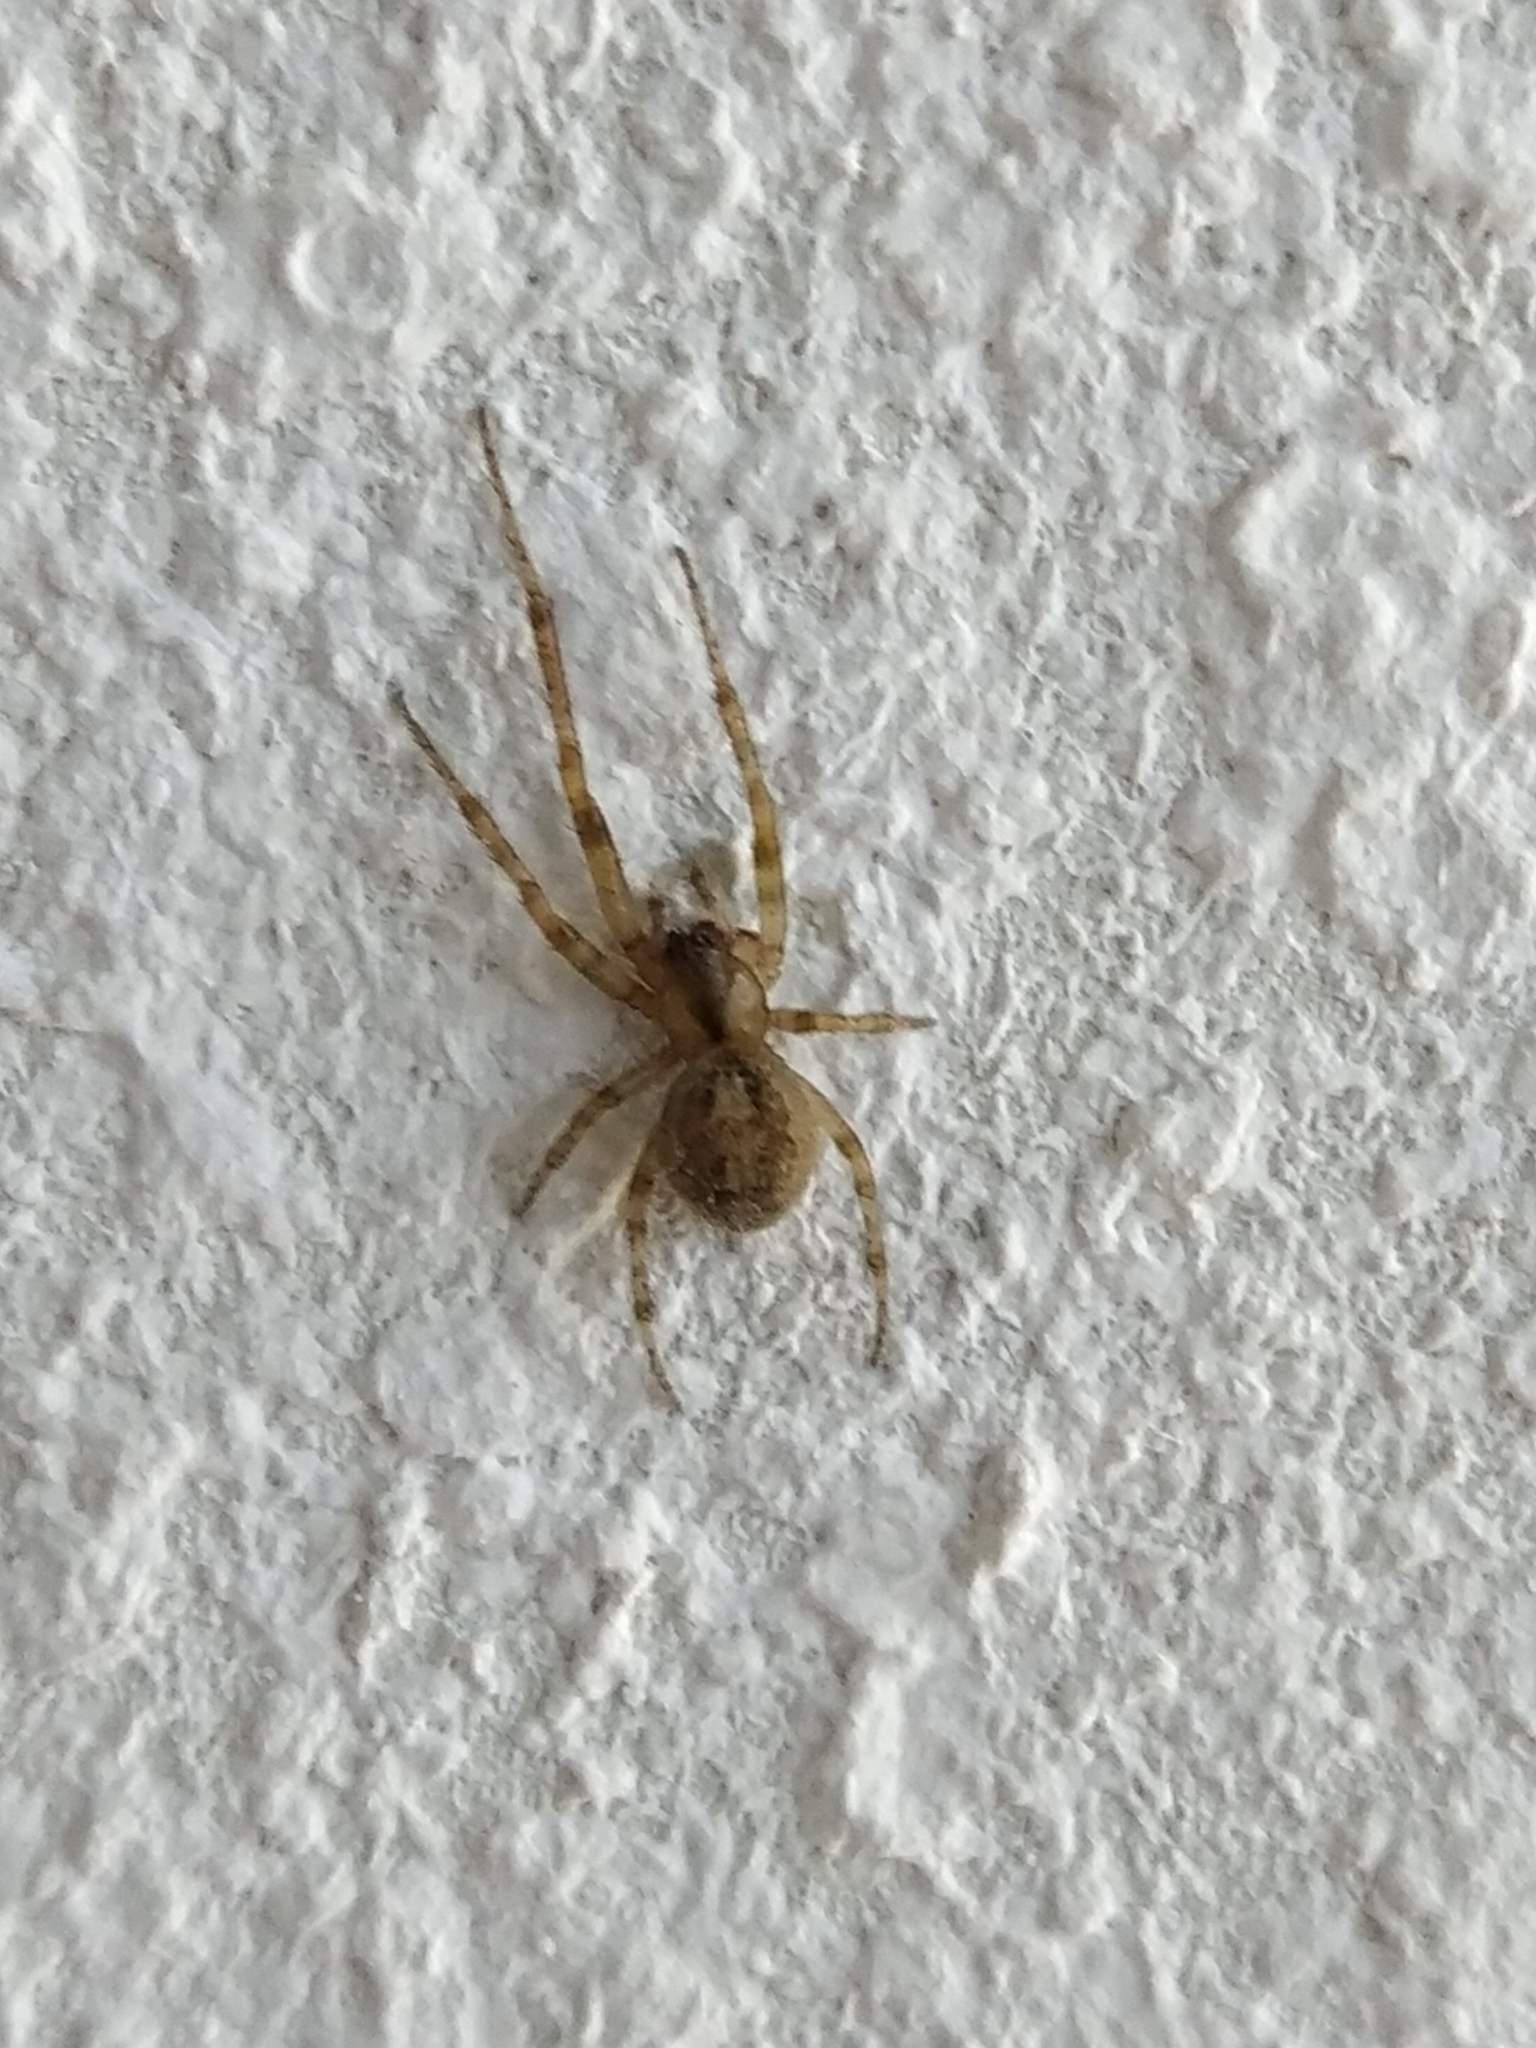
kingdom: Animalia
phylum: Arthropoda
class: Arachnida
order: Araneae
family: Araneidae
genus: Zygiella
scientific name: Zygiella x-notata
